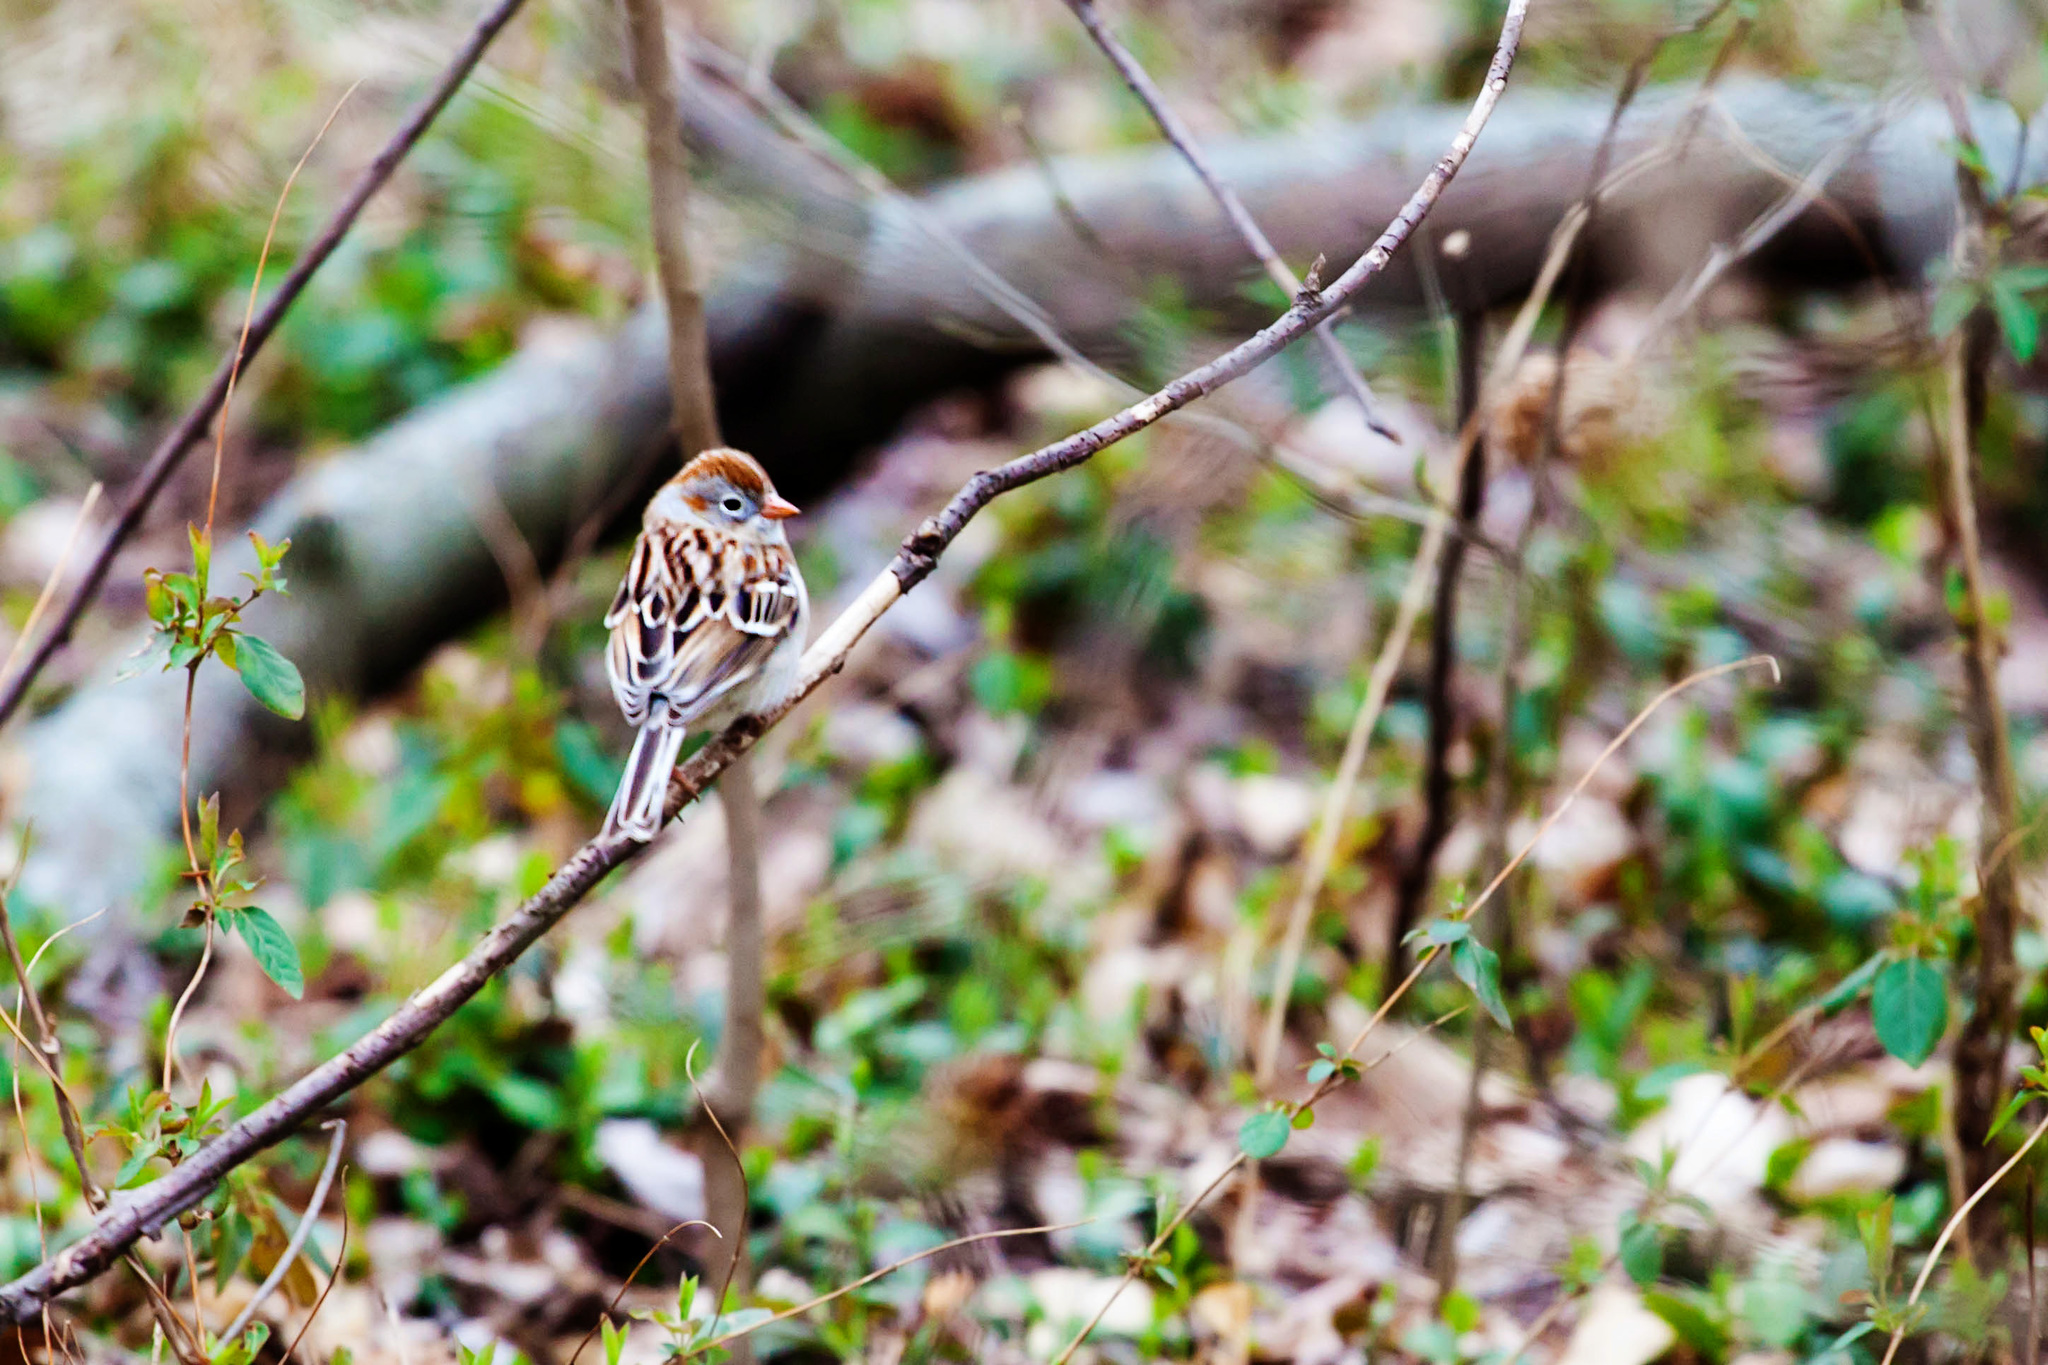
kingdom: Animalia
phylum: Chordata
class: Aves
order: Passeriformes
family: Passerellidae
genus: Spizella
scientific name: Spizella pusilla
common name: Field sparrow
